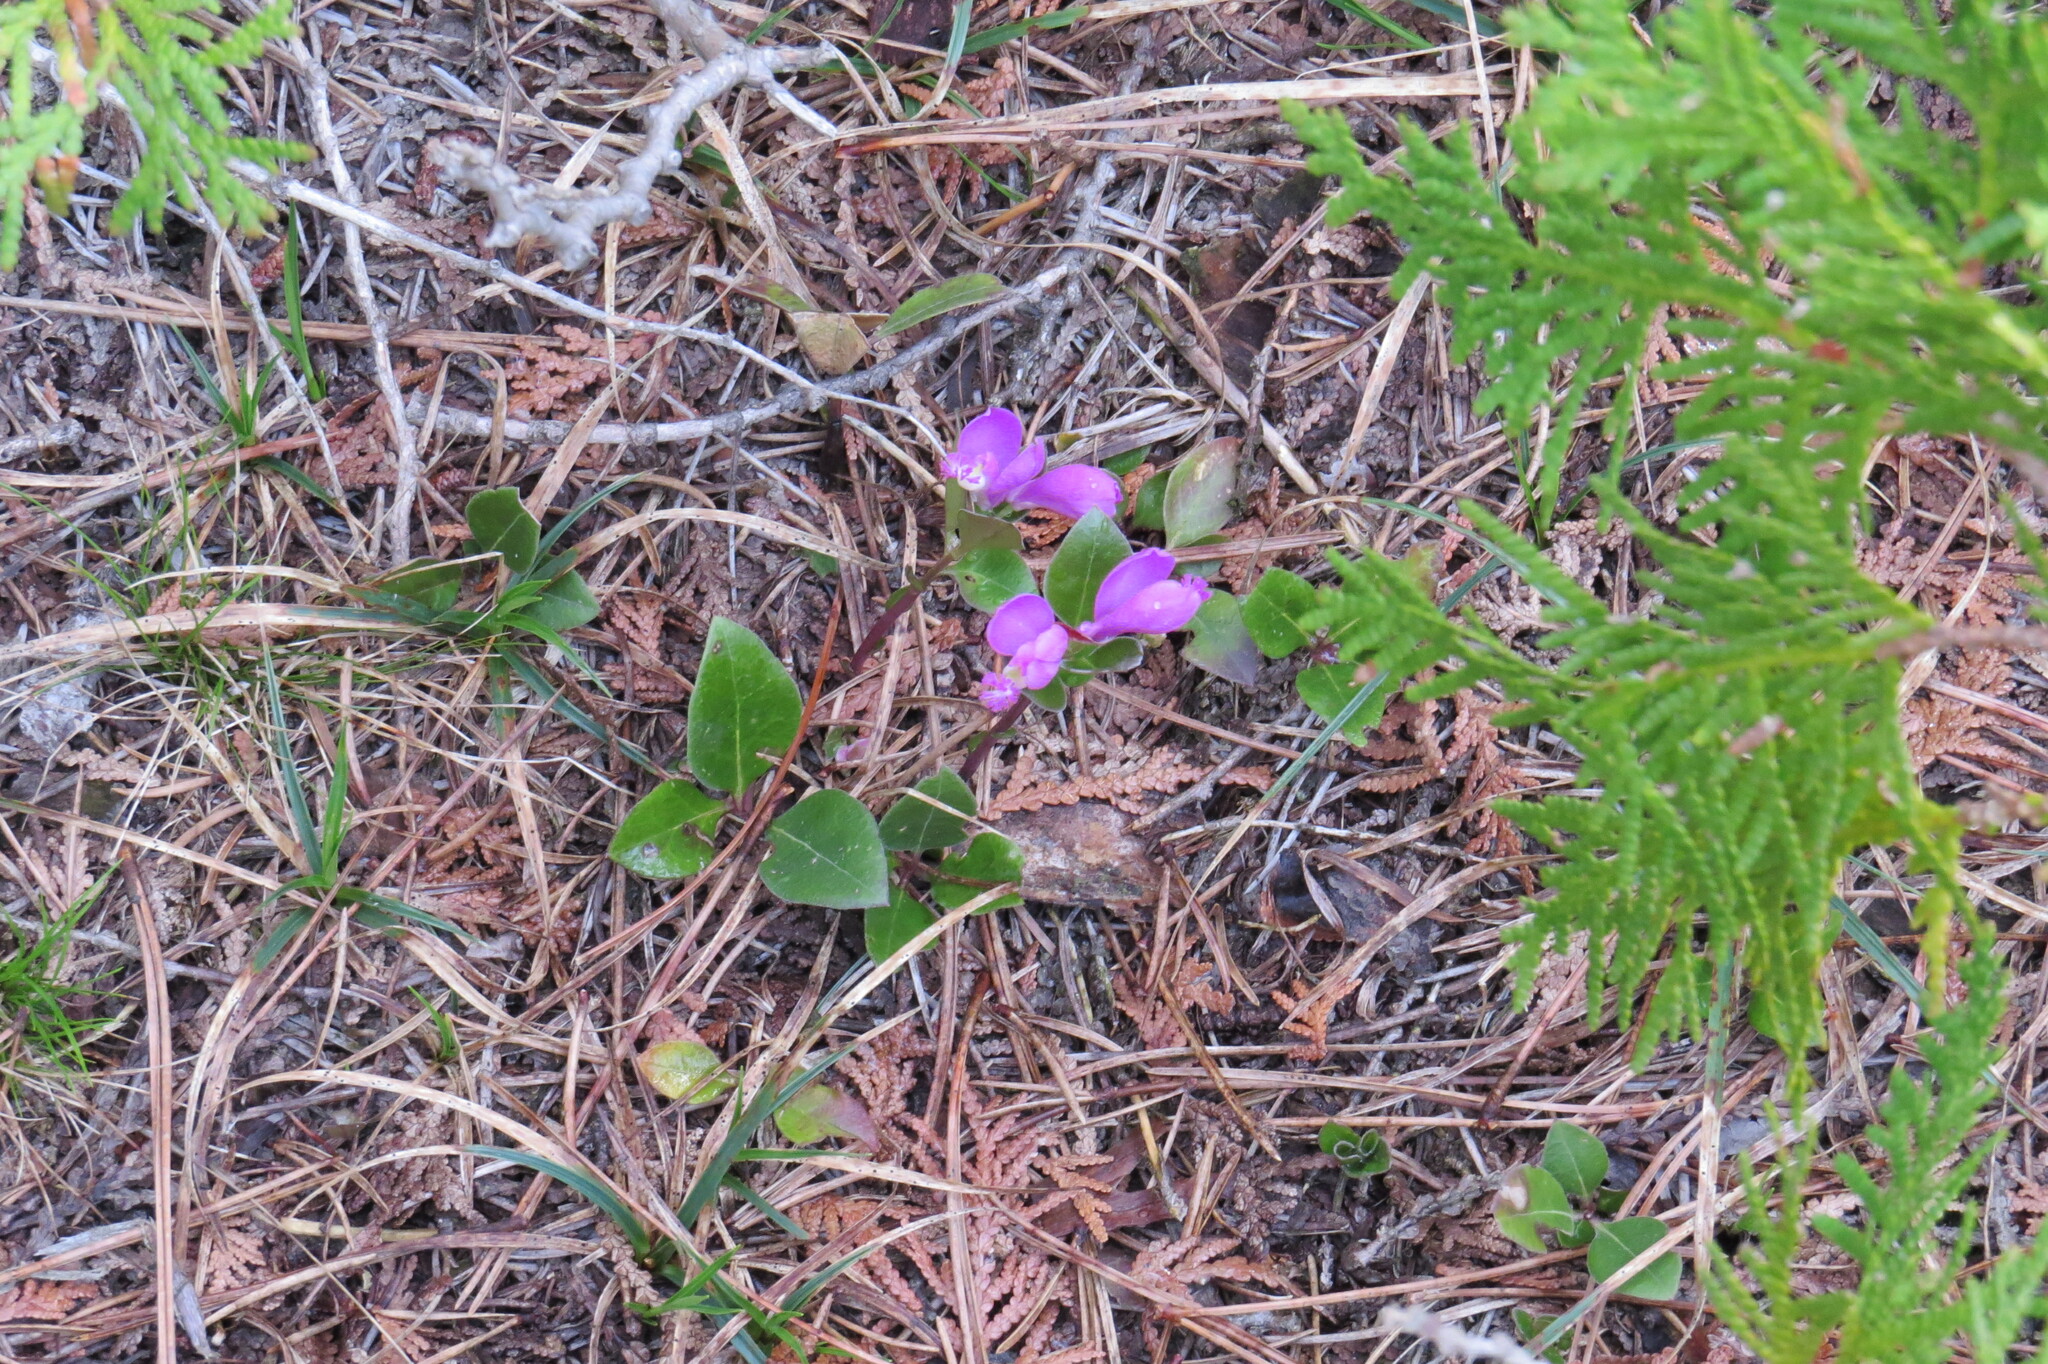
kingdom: Plantae
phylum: Tracheophyta
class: Magnoliopsida
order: Fabales
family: Polygalaceae
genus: Polygaloides
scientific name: Polygaloides paucifolia
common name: Bird-on-the-wing
